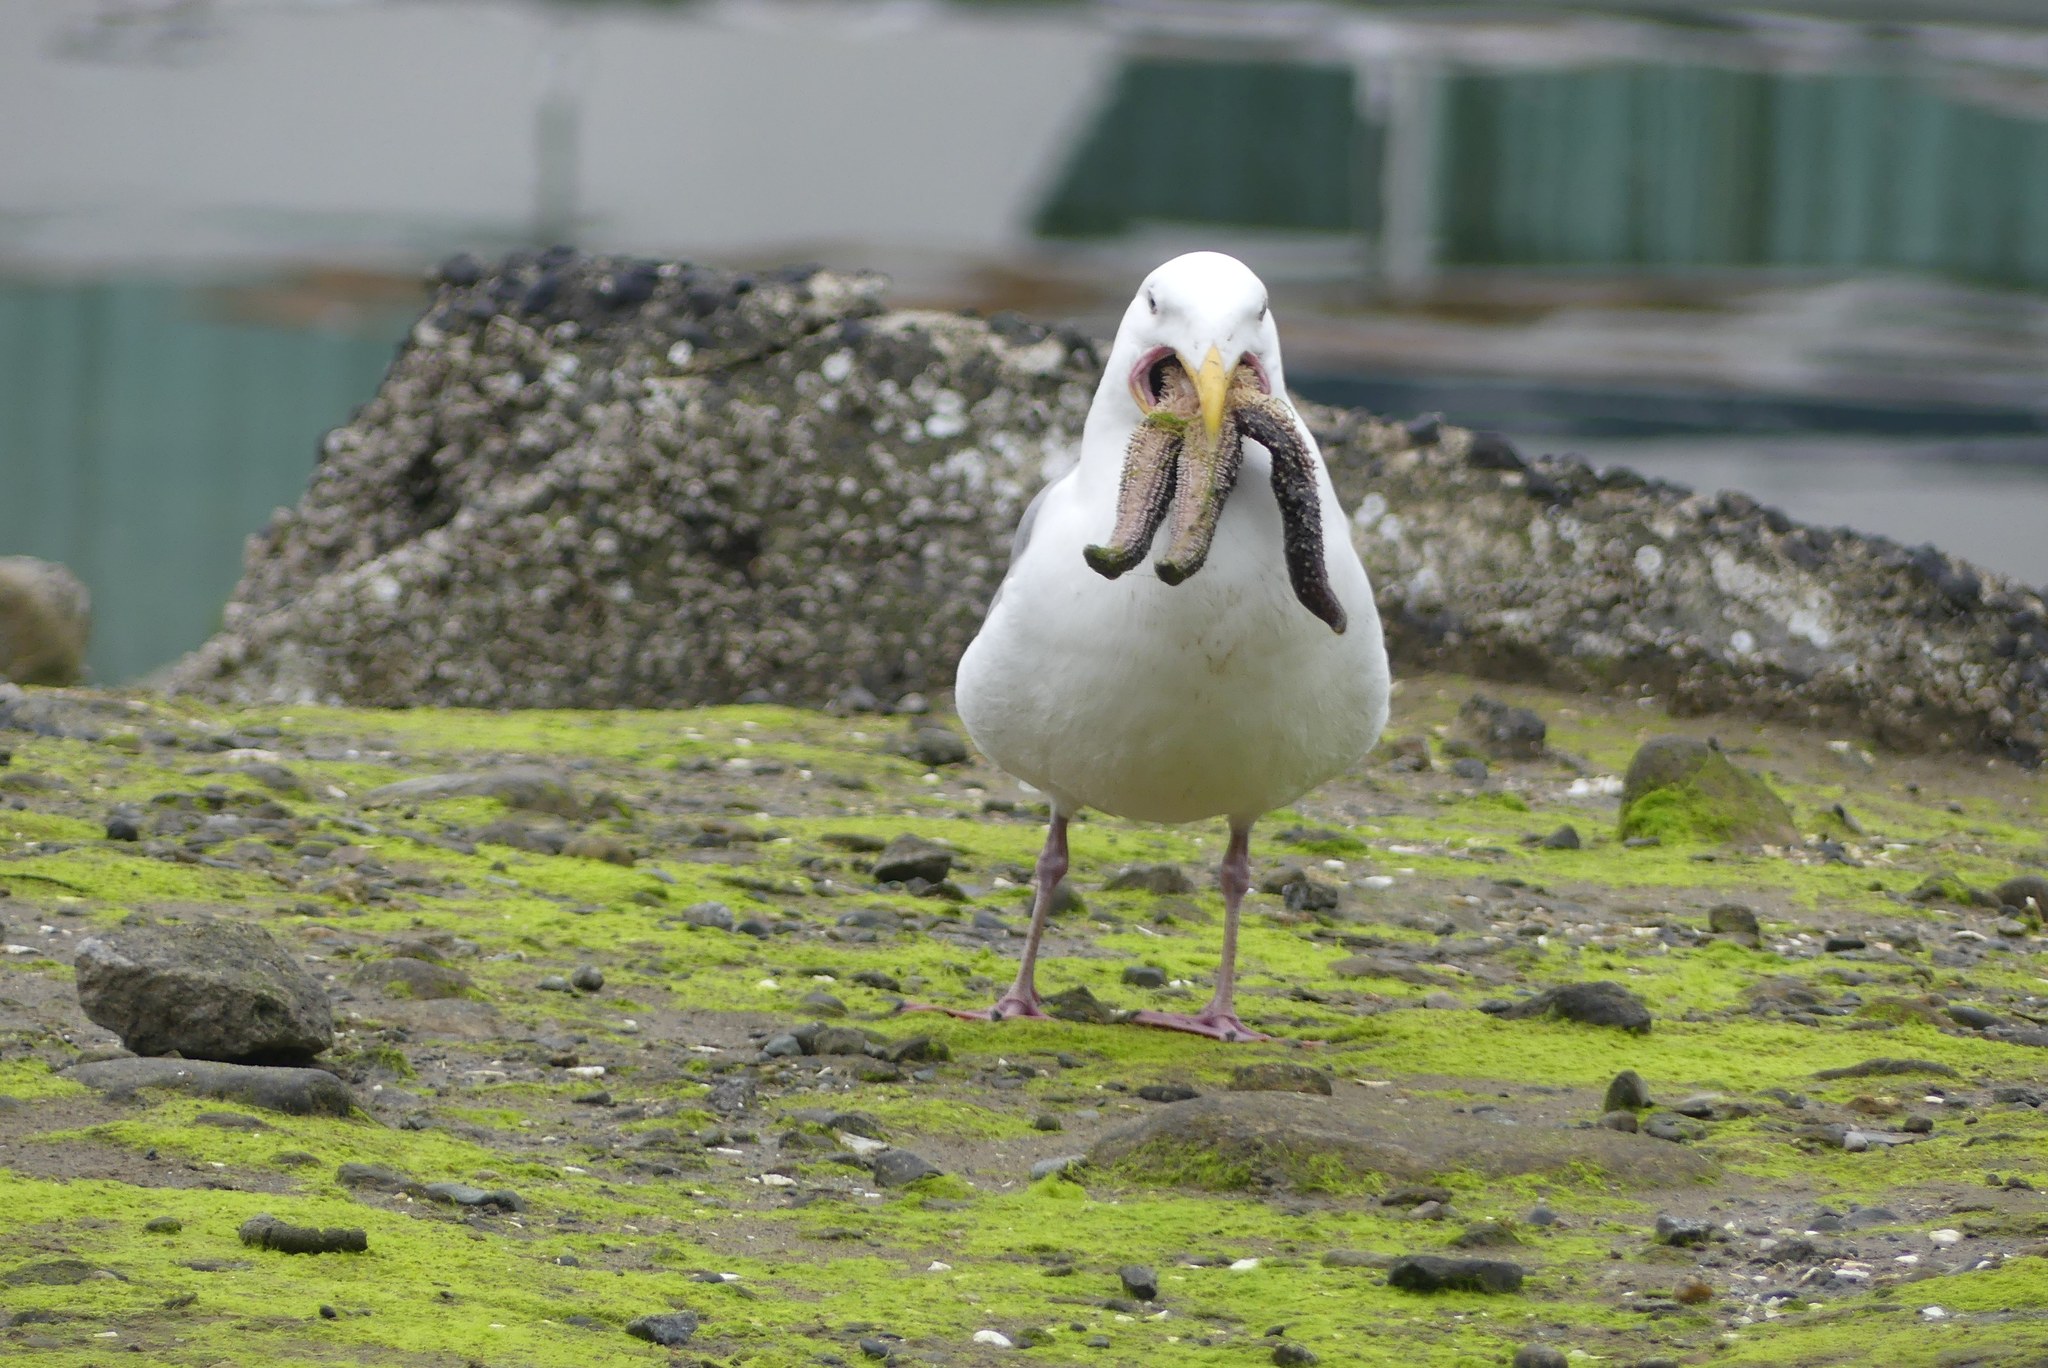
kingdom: Animalia
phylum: Echinodermata
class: Asteroidea
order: Forcipulatida
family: Asteriidae
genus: Evasterias
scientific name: Evasterias troschelii
